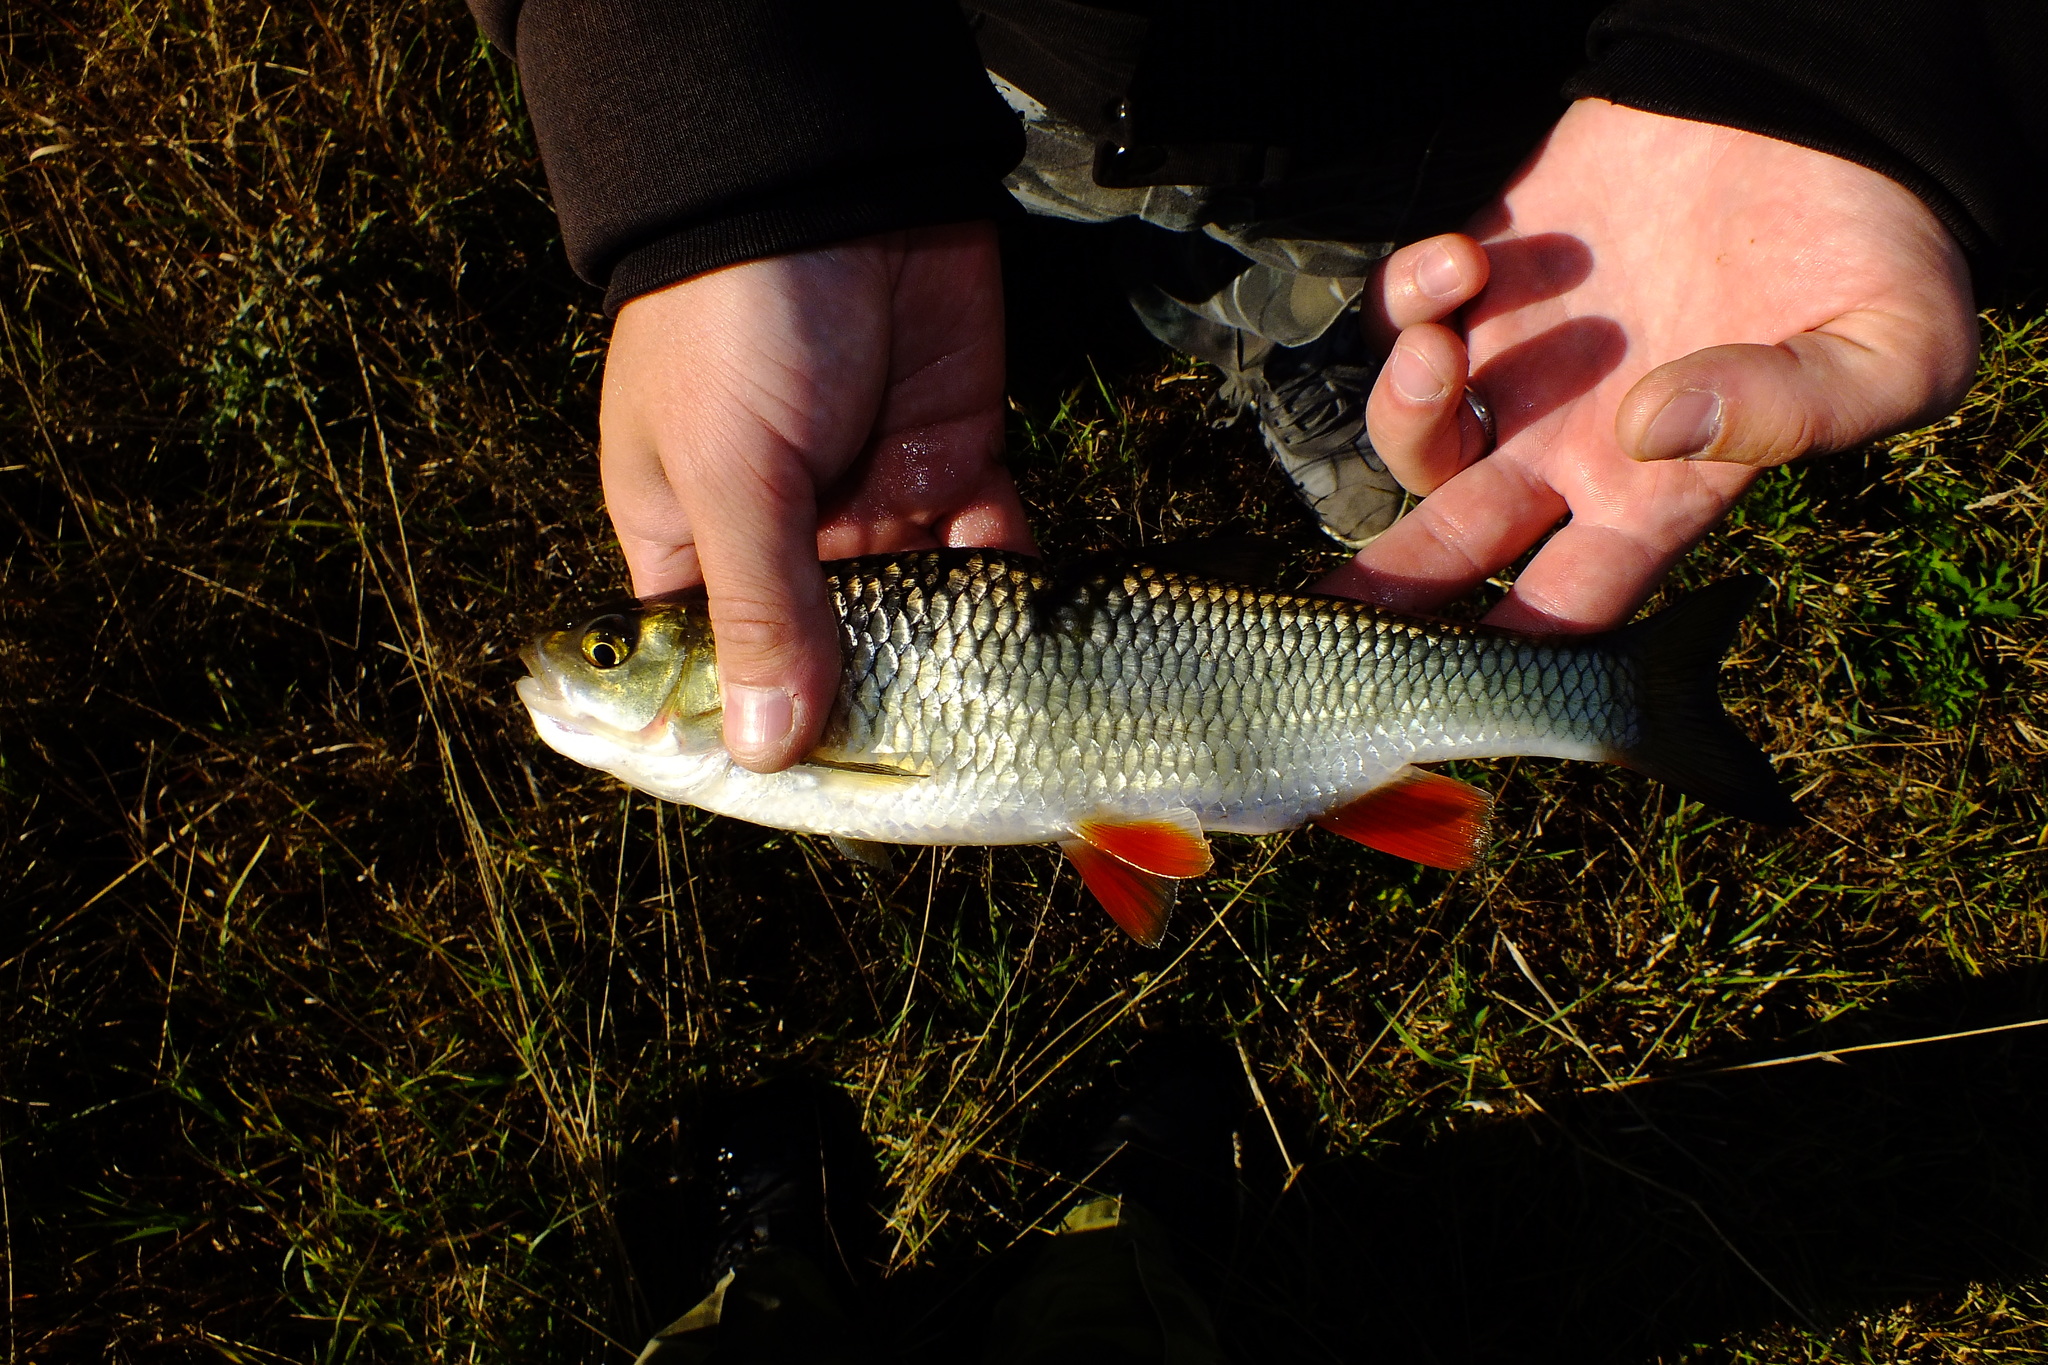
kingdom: Animalia
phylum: Chordata
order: Cypriniformes
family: Cyprinidae
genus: Squalius
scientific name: Squalius cephalus
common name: Chub
